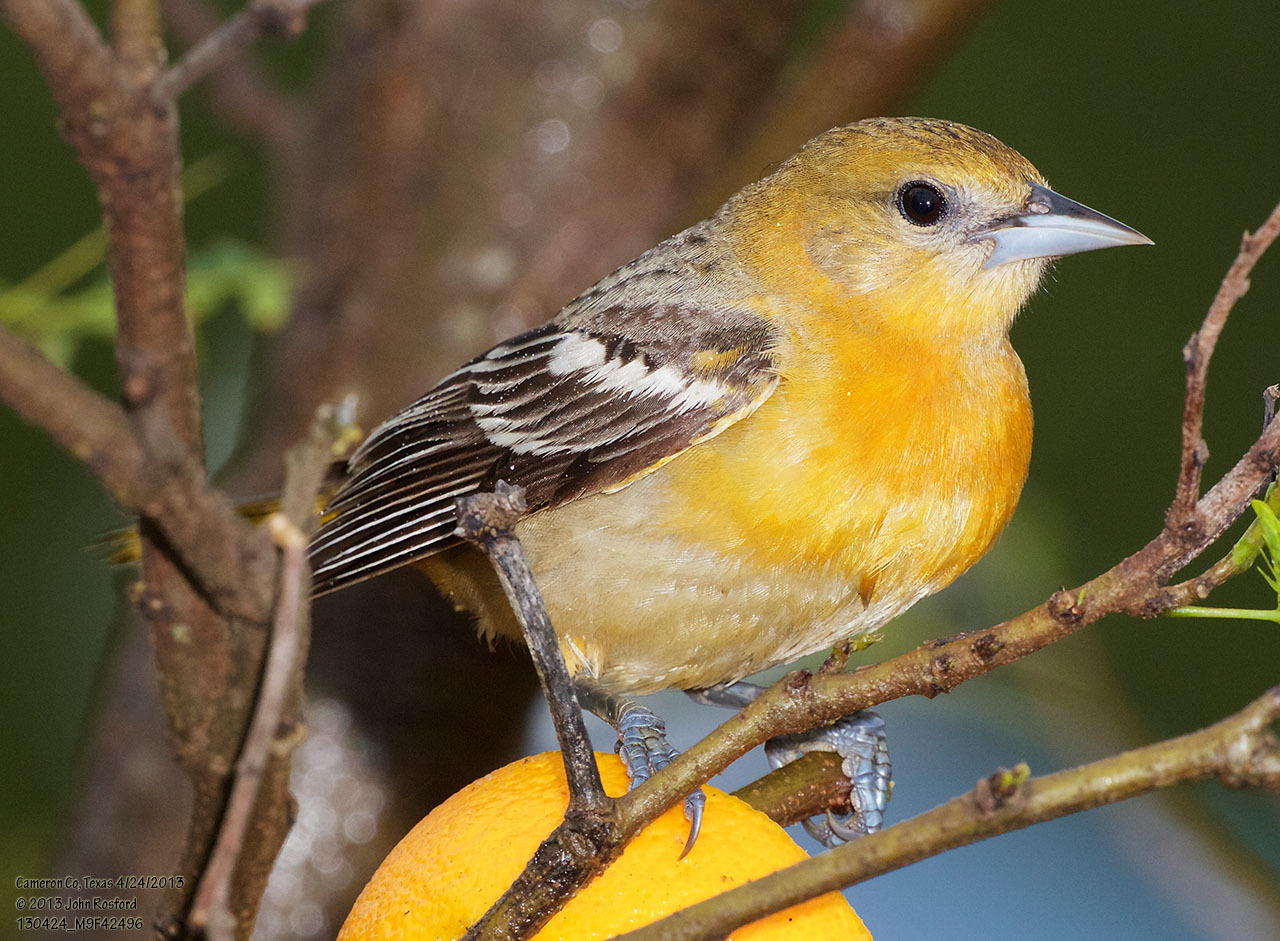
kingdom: Animalia
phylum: Chordata
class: Aves
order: Passeriformes
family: Icteridae
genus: Icterus
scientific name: Icterus galbula
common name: Baltimore oriole
